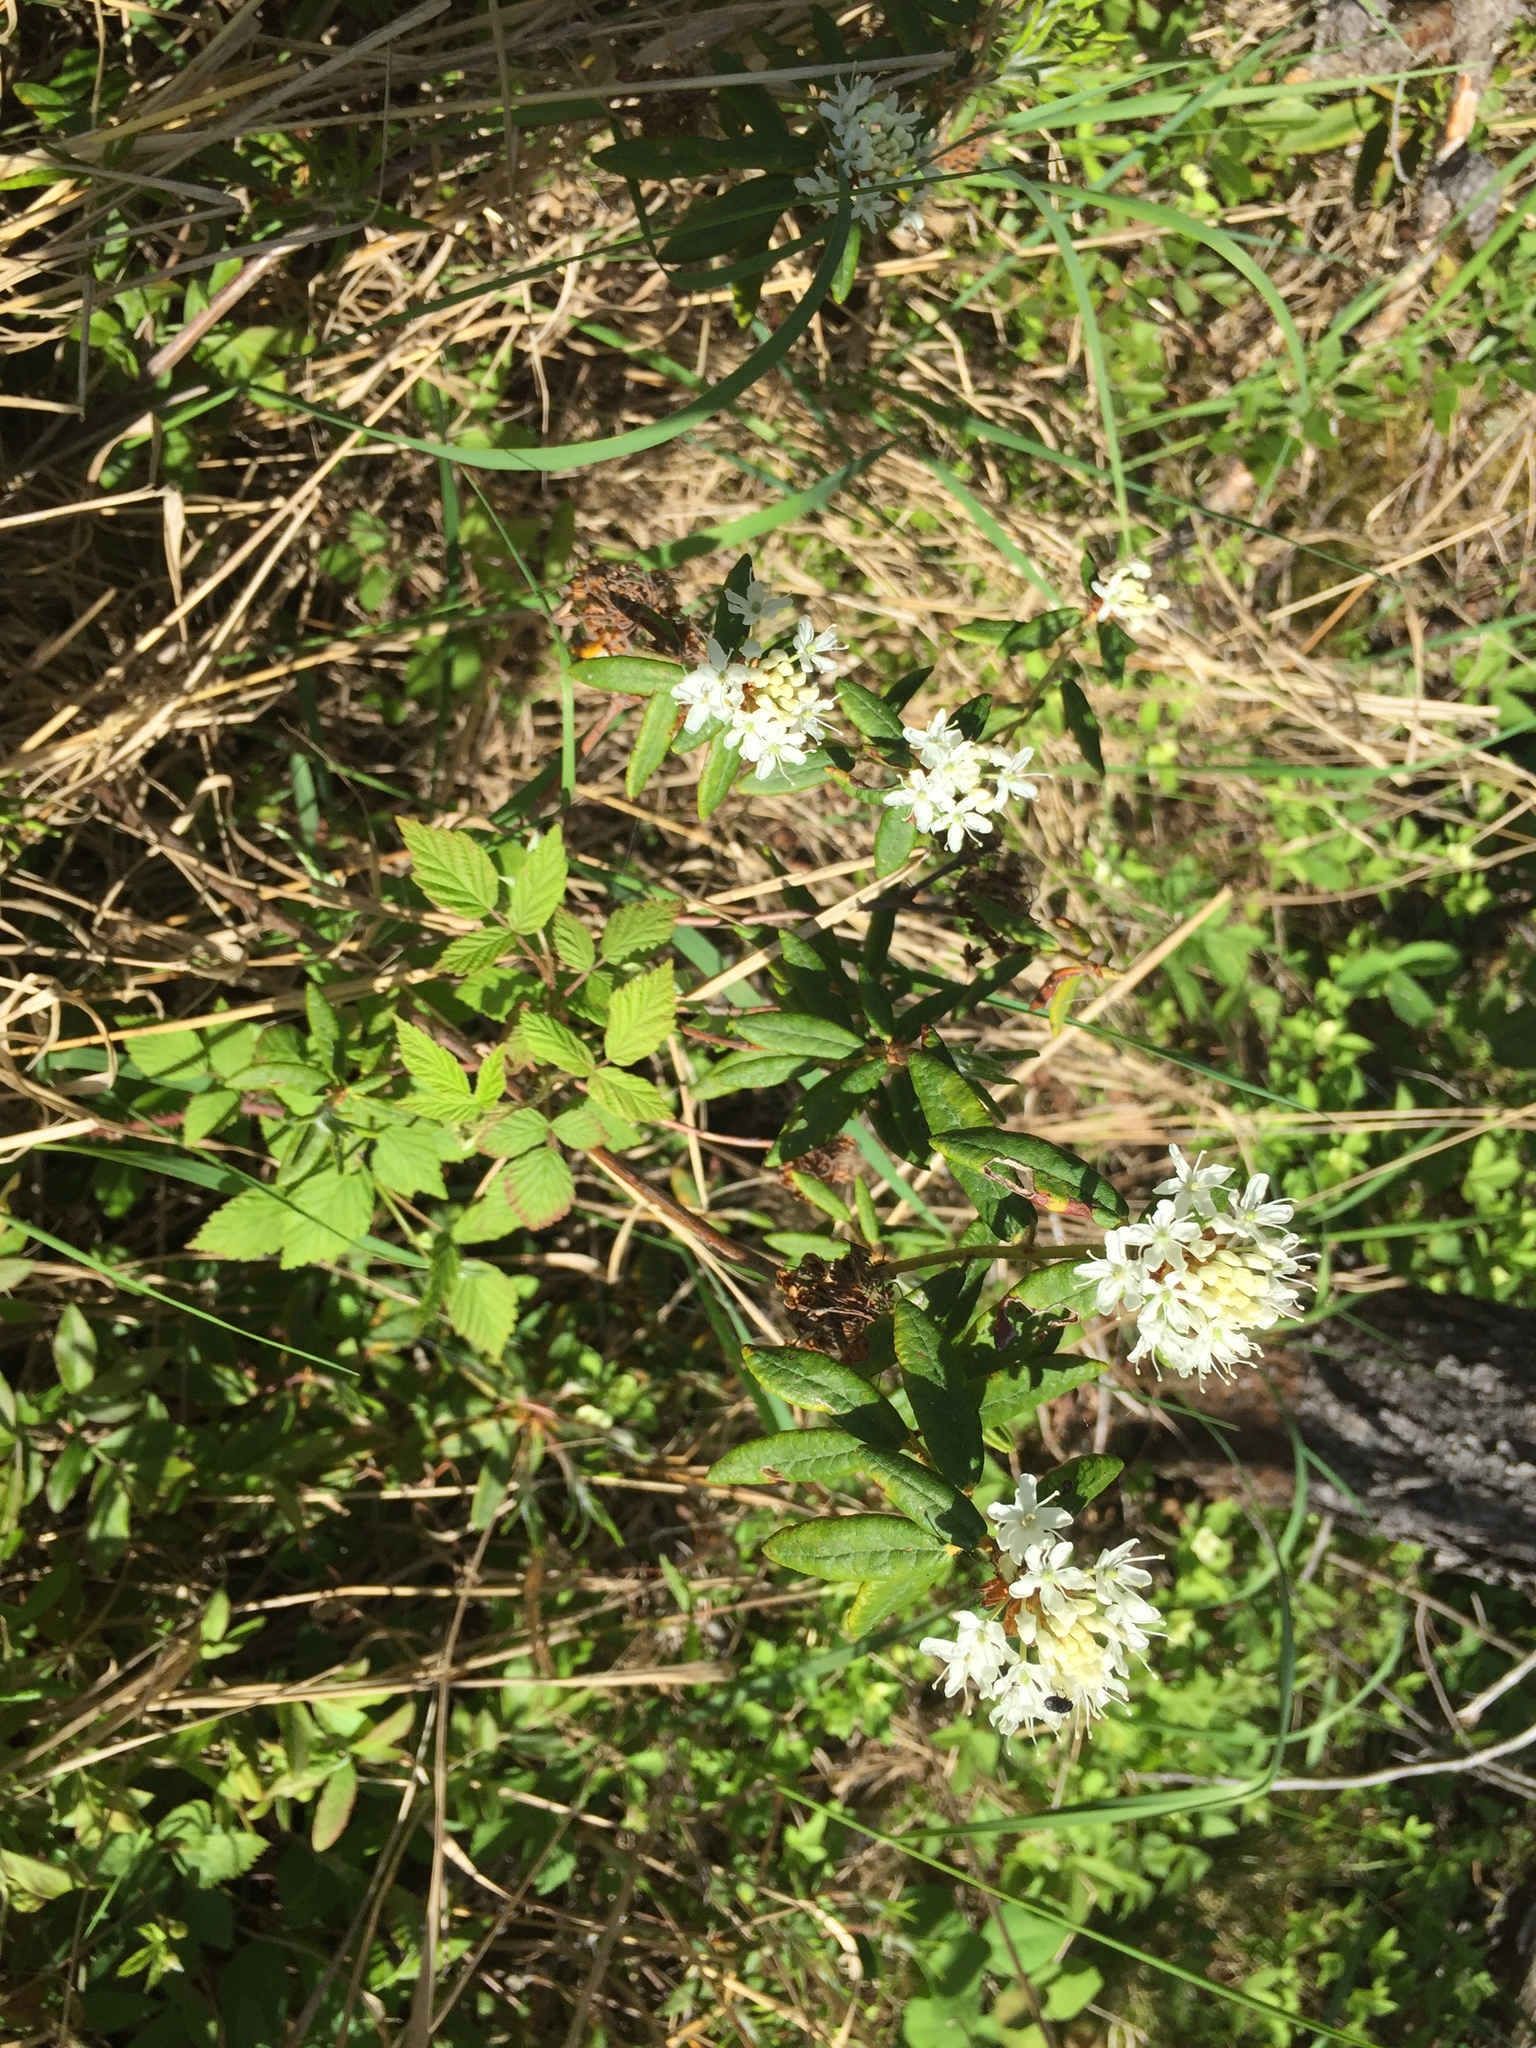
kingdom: Plantae
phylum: Tracheophyta
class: Magnoliopsida
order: Ericales
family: Ericaceae
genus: Rhododendron
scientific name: Rhododendron groenlandicum
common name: Bog labrador tea
